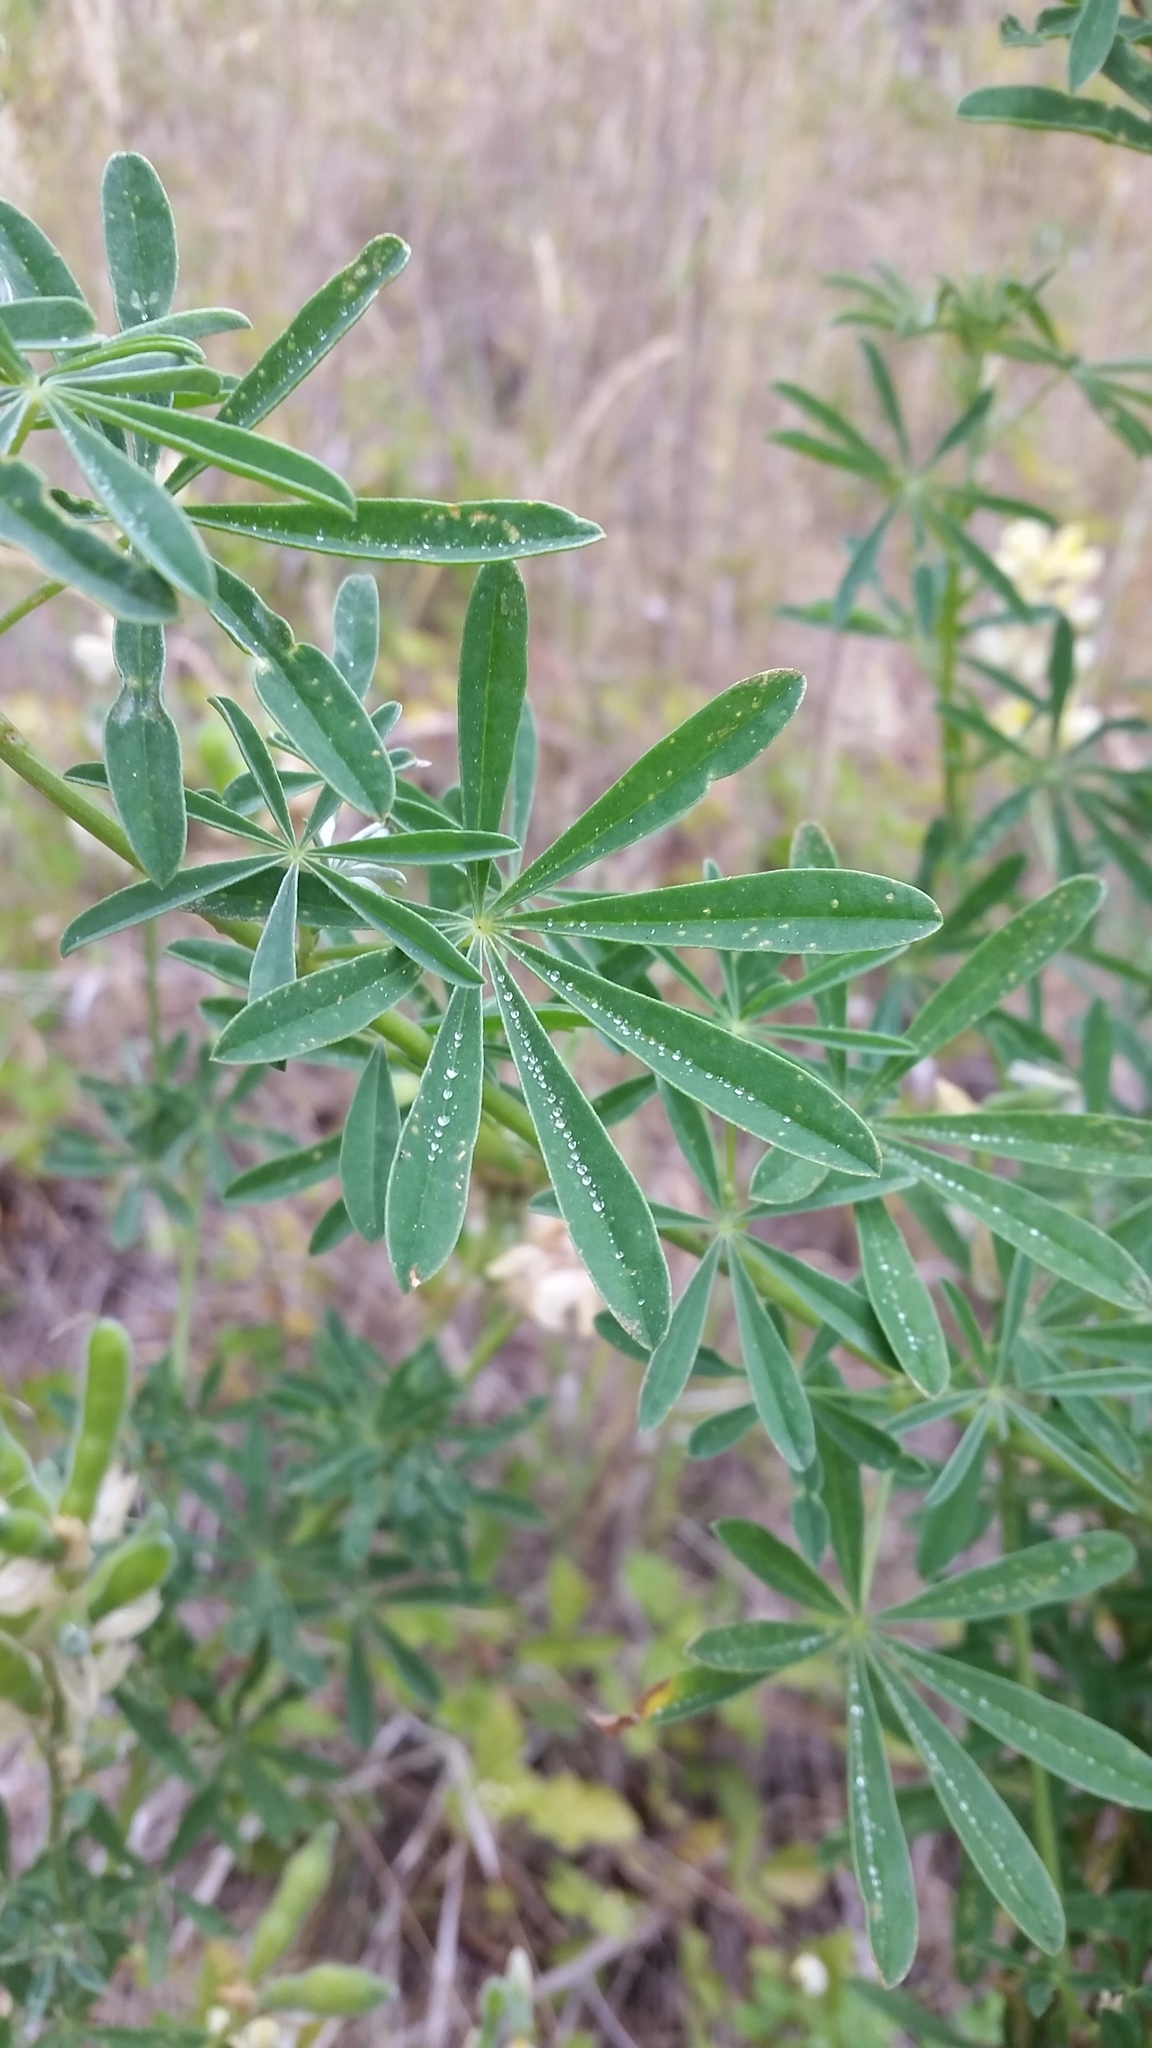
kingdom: Plantae
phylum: Tracheophyta
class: Magnoliopsida
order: Fabales
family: Fabaceae
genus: Lupinus
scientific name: Lupinus arboreus
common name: Yellow bush lupine
